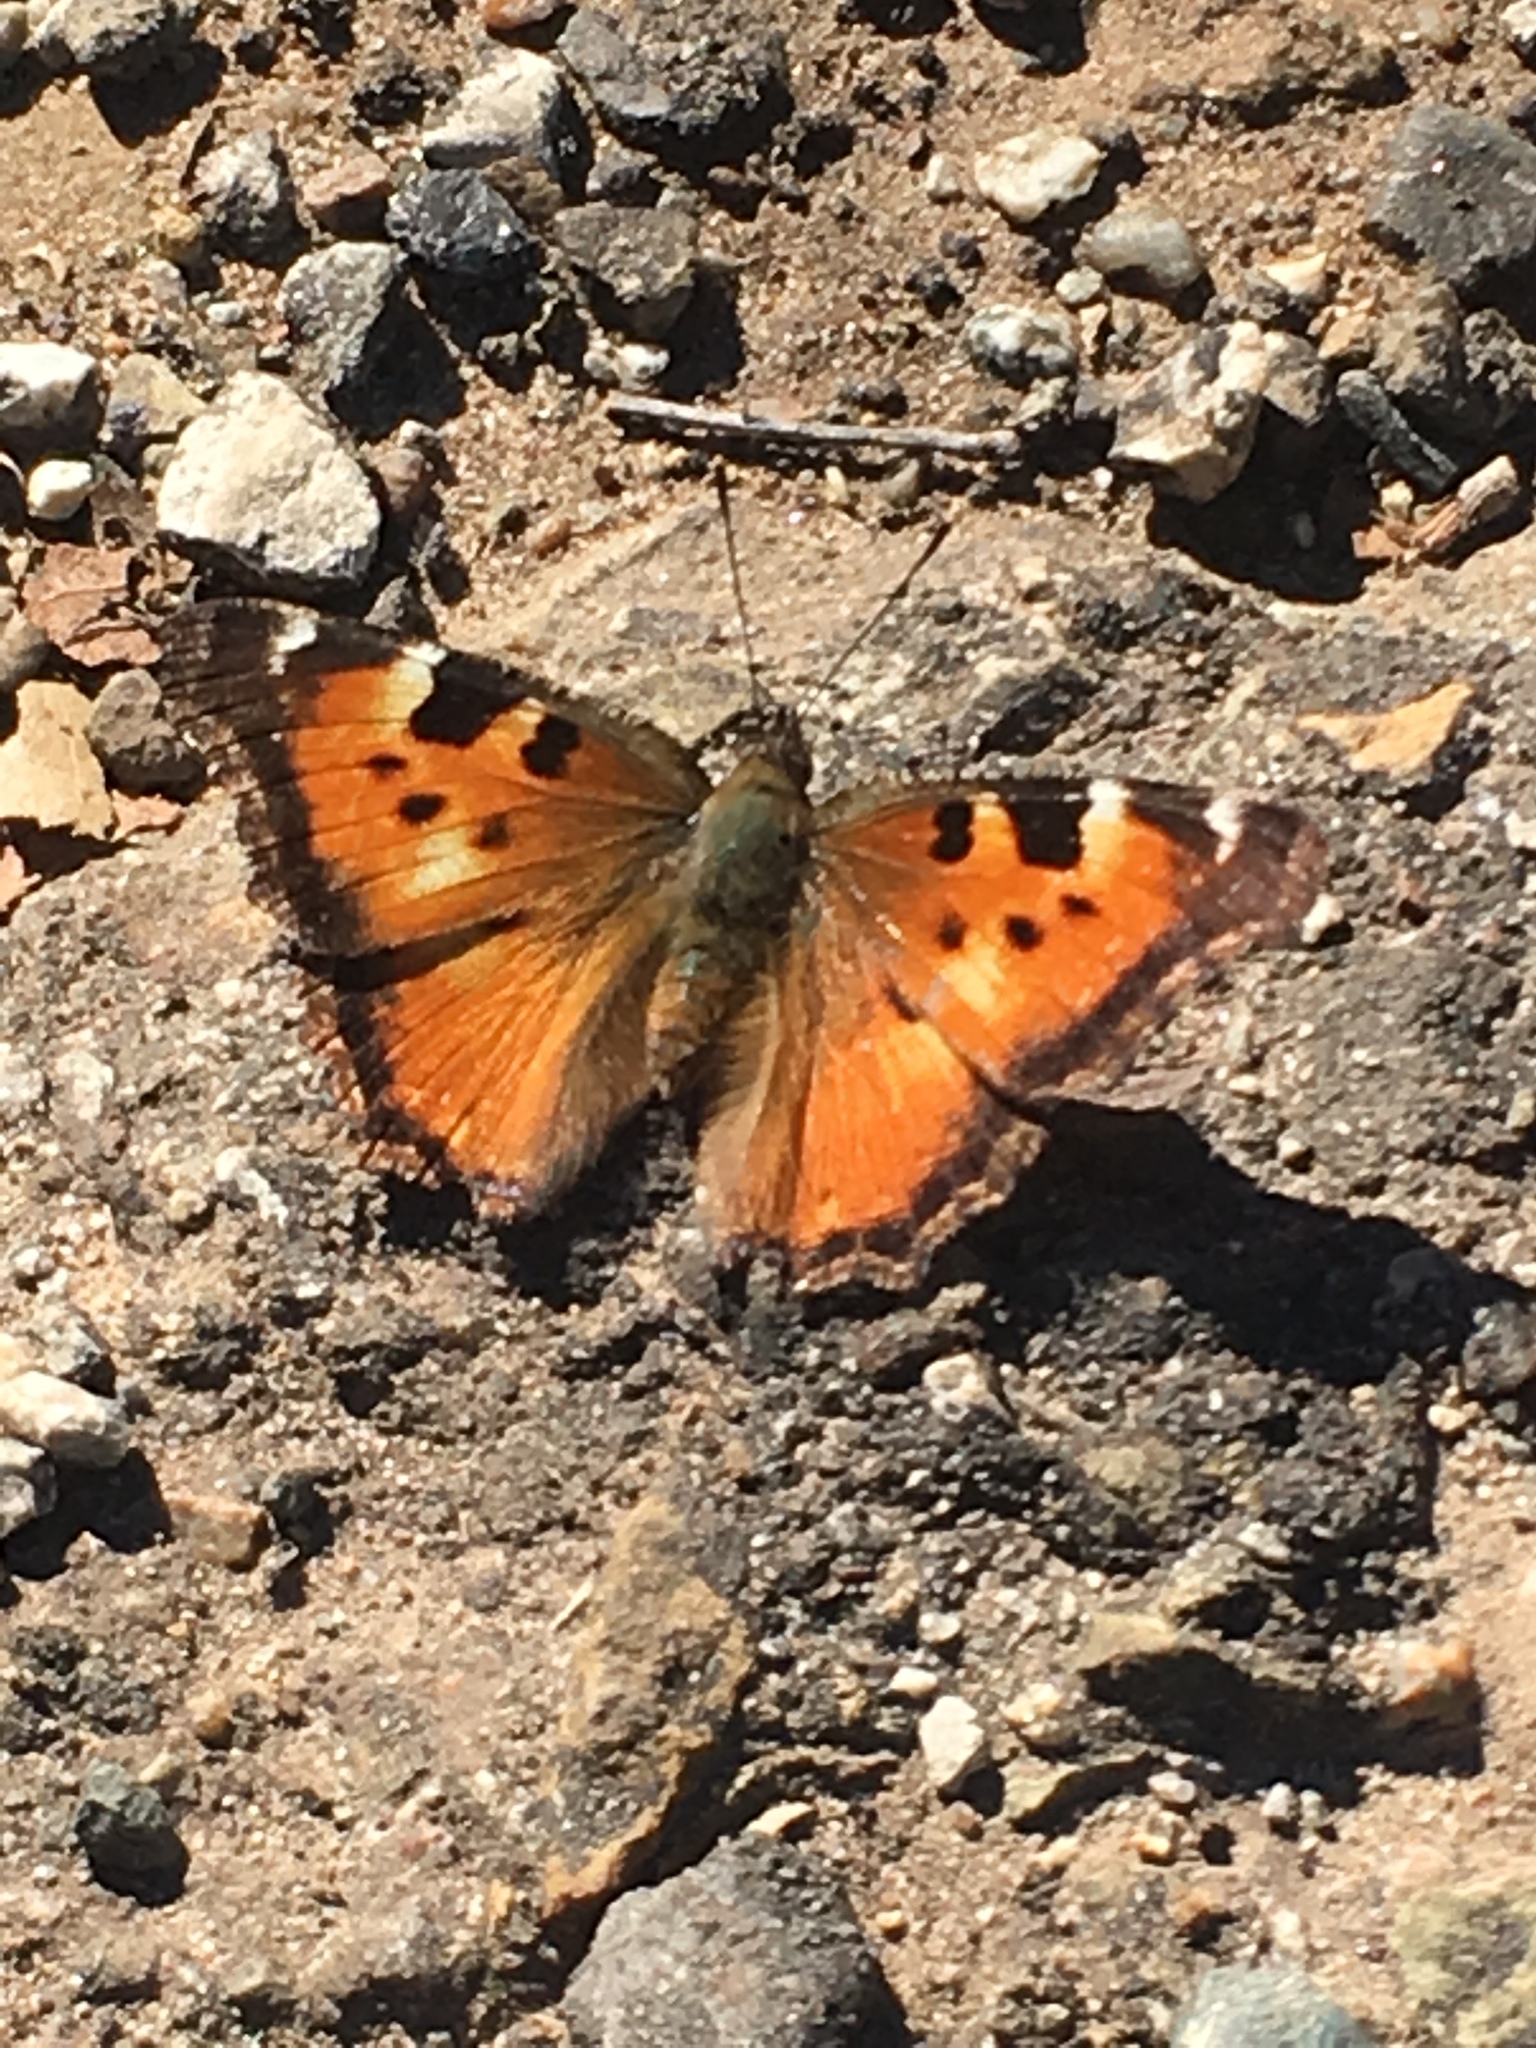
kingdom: Animalia
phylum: Arthropoda
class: Insecta
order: Lepidoptera
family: Nymphalidae
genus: Nymphalis
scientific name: Nymphalis californica
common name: California tortoiseshell
